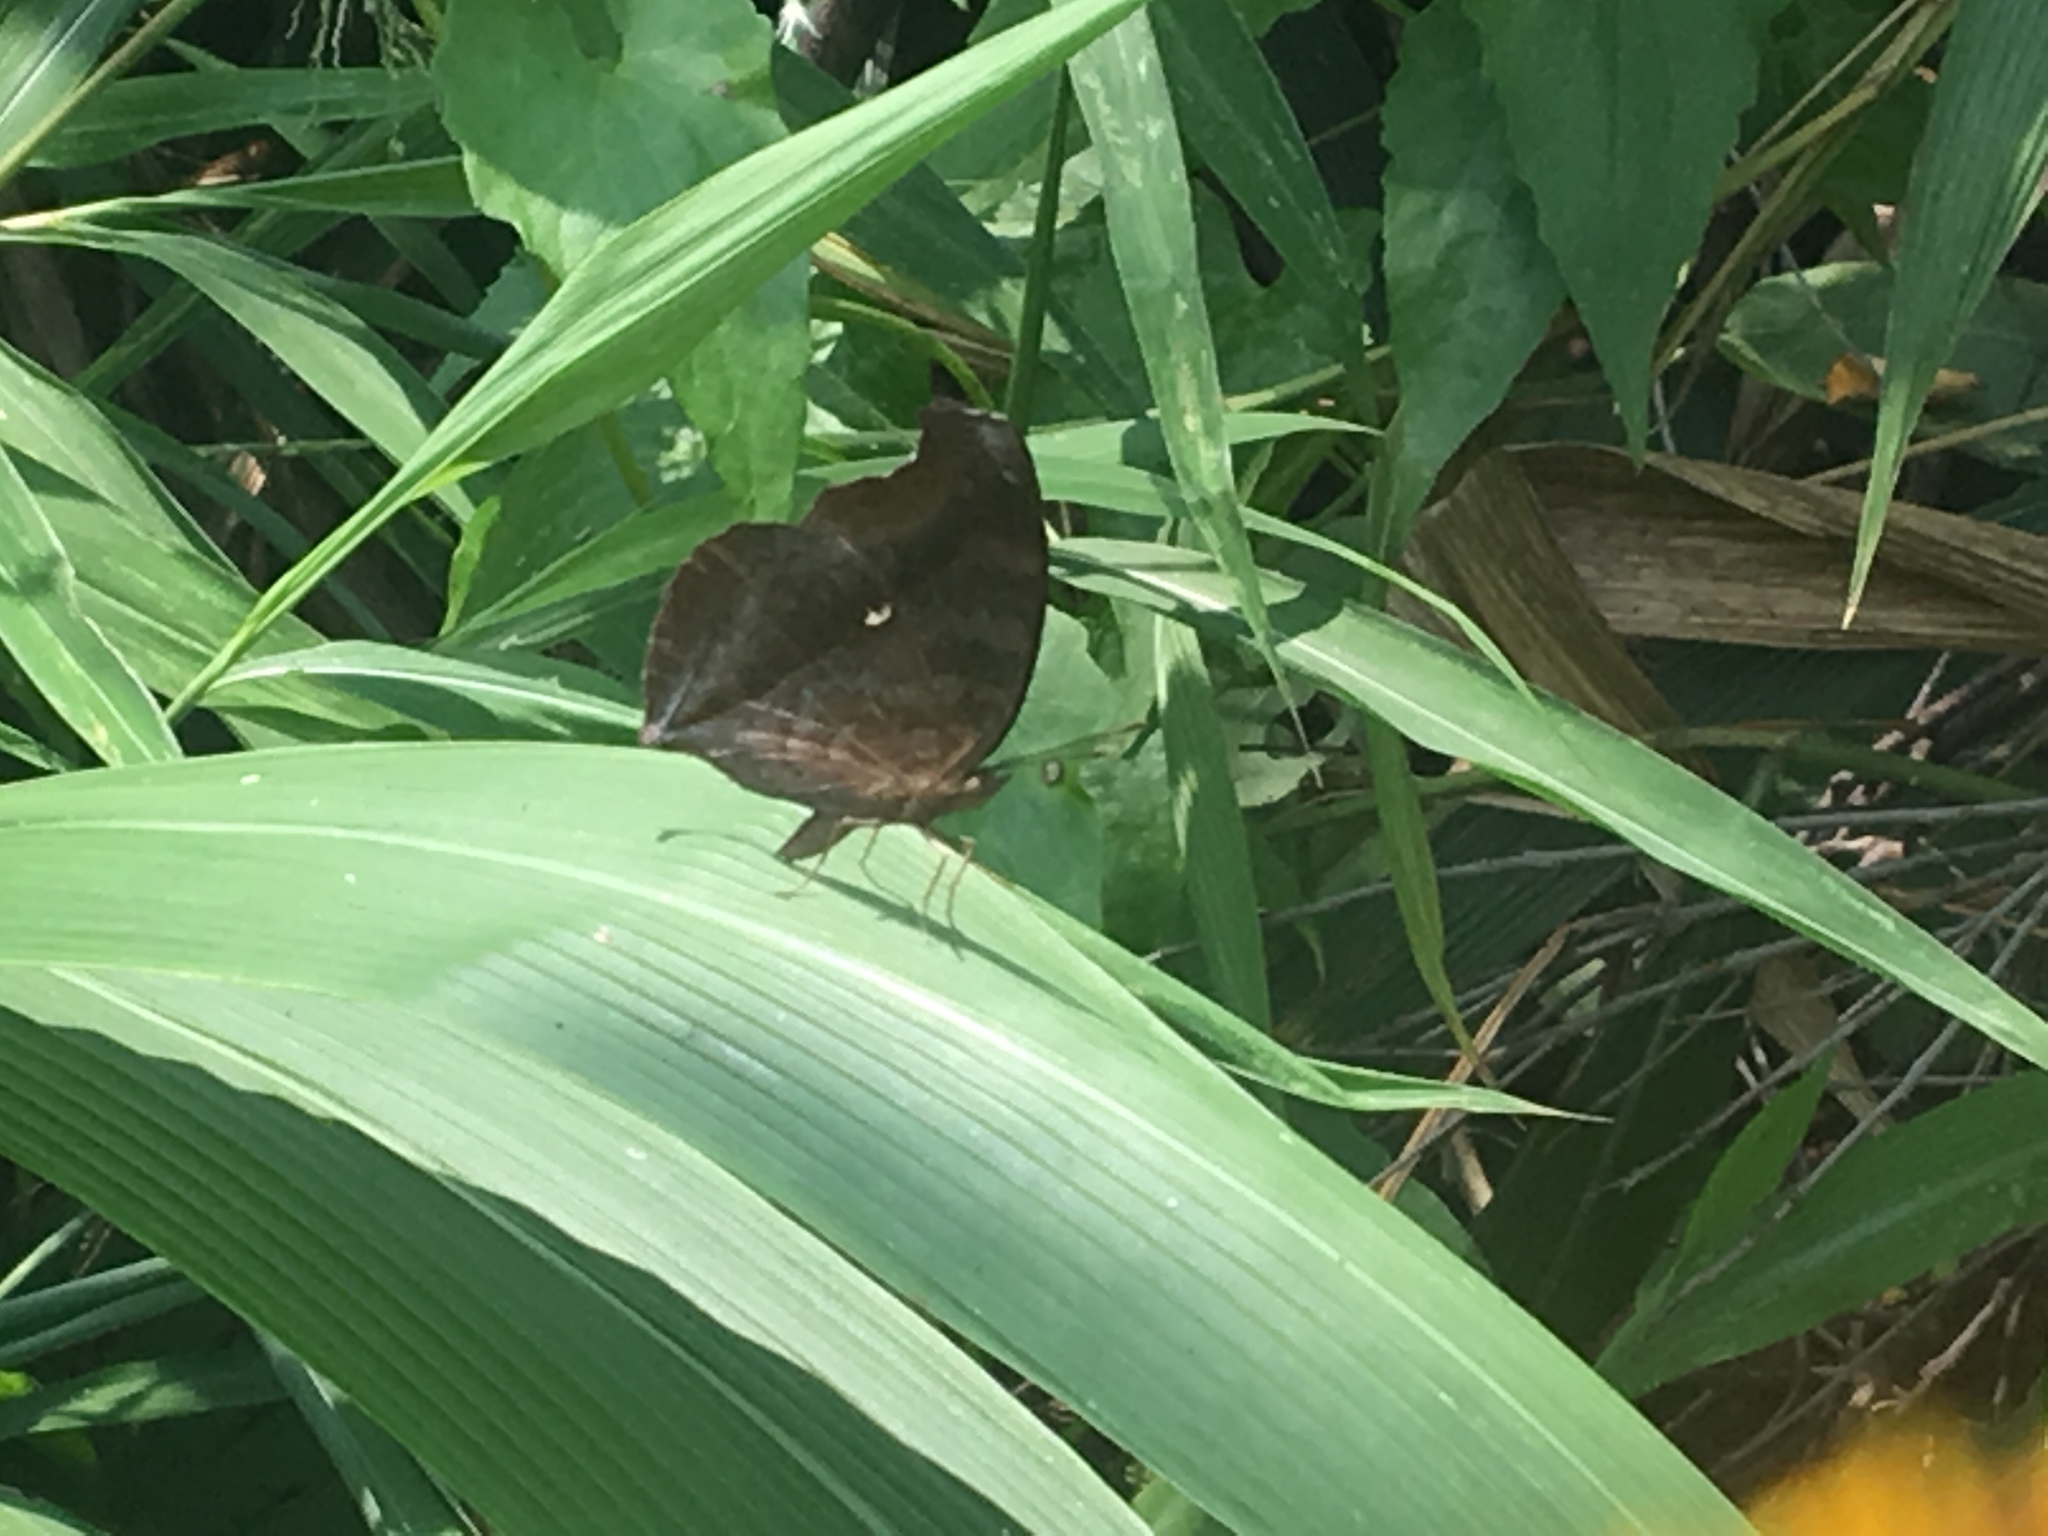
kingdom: Animalia
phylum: Arthropoda
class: Insecta
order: Lepidoptera
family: Nymphalidae
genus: Junonia
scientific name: Junonia iphita
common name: Chocolate pansy
